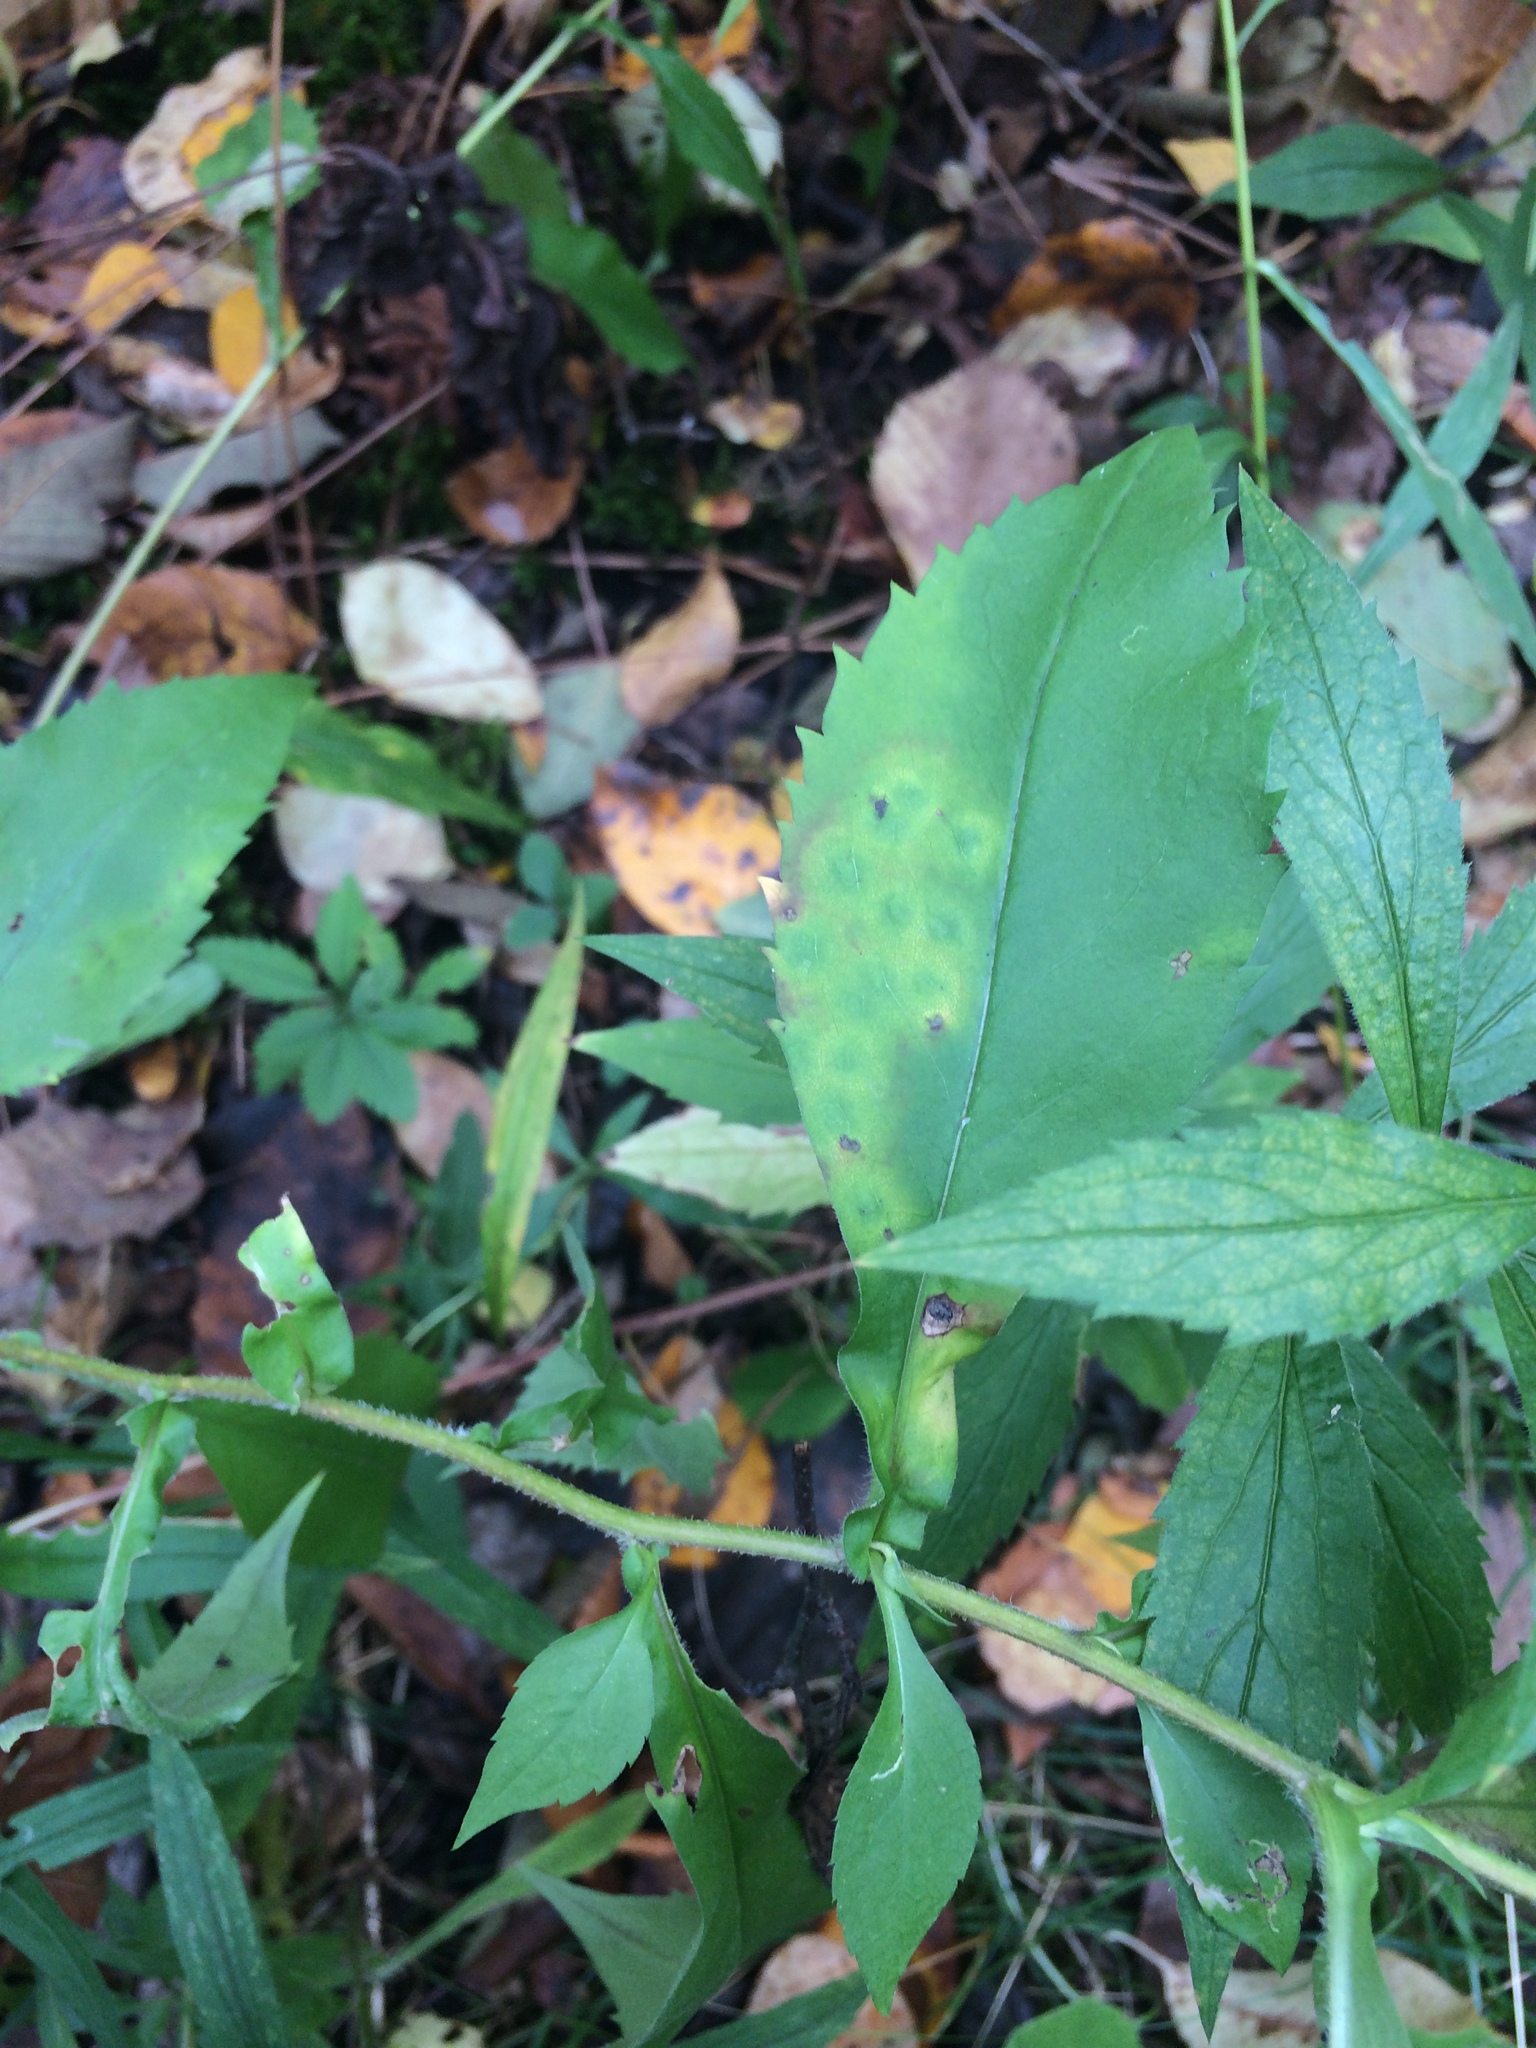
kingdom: Plantae
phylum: Tracheophyta
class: Magnoliopsida
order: Asterales
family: Asteraceae
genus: Symphyotrichum
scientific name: Symphyotrichum ciliolatum
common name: Fringed blue aster
